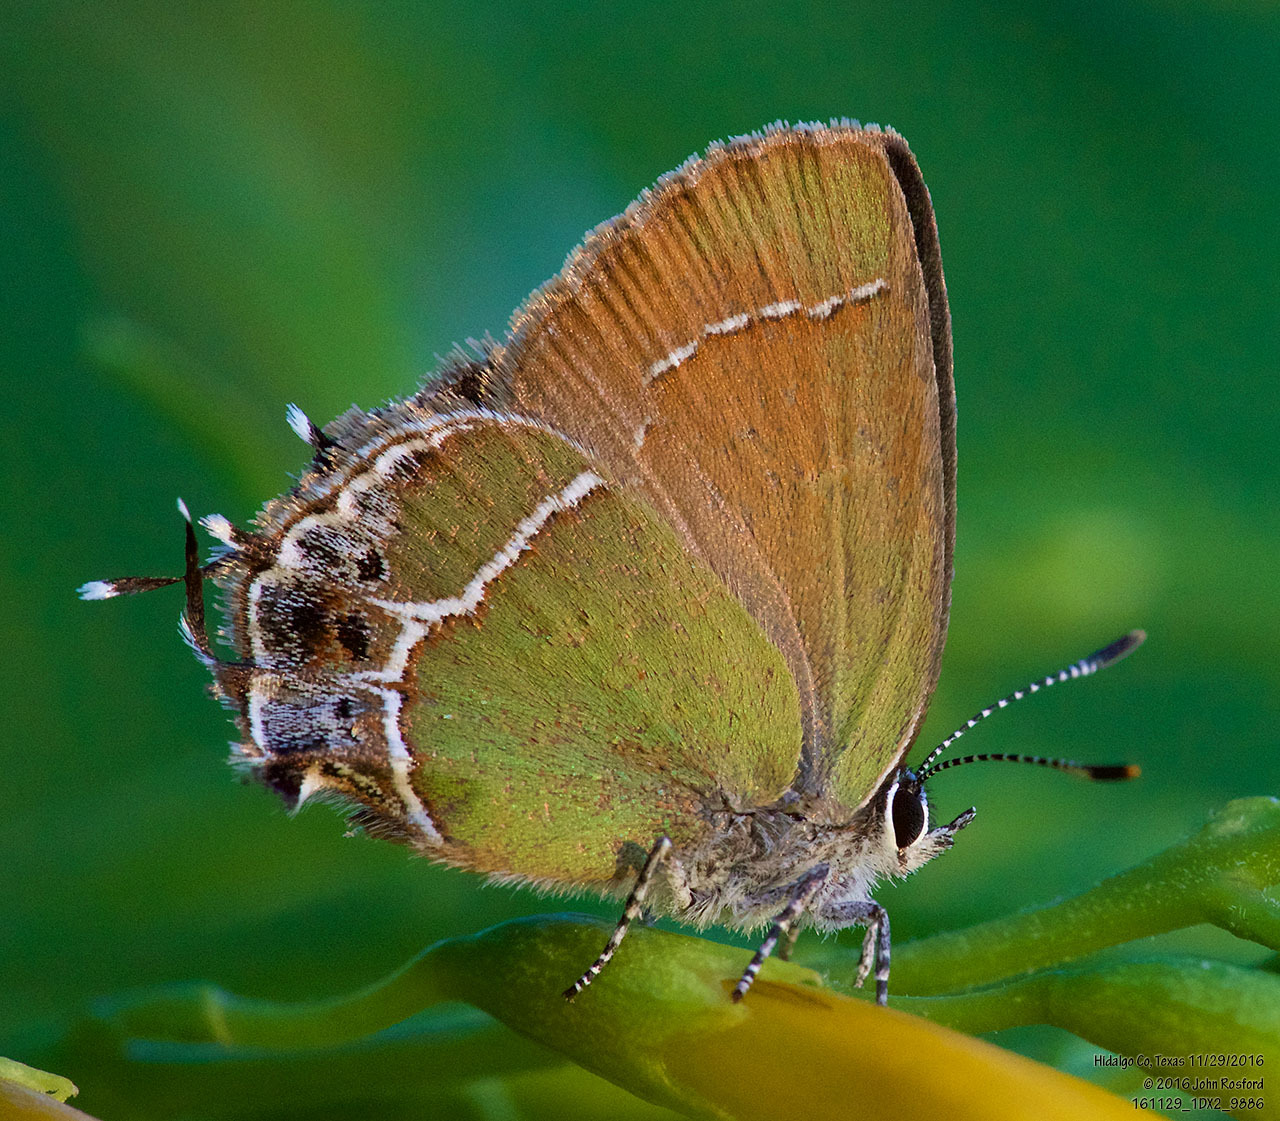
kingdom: Animalia
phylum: Arthropoda
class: Insecta
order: Lepidoptera
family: Lycaenidae
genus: Xamia
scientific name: Xamia xami
